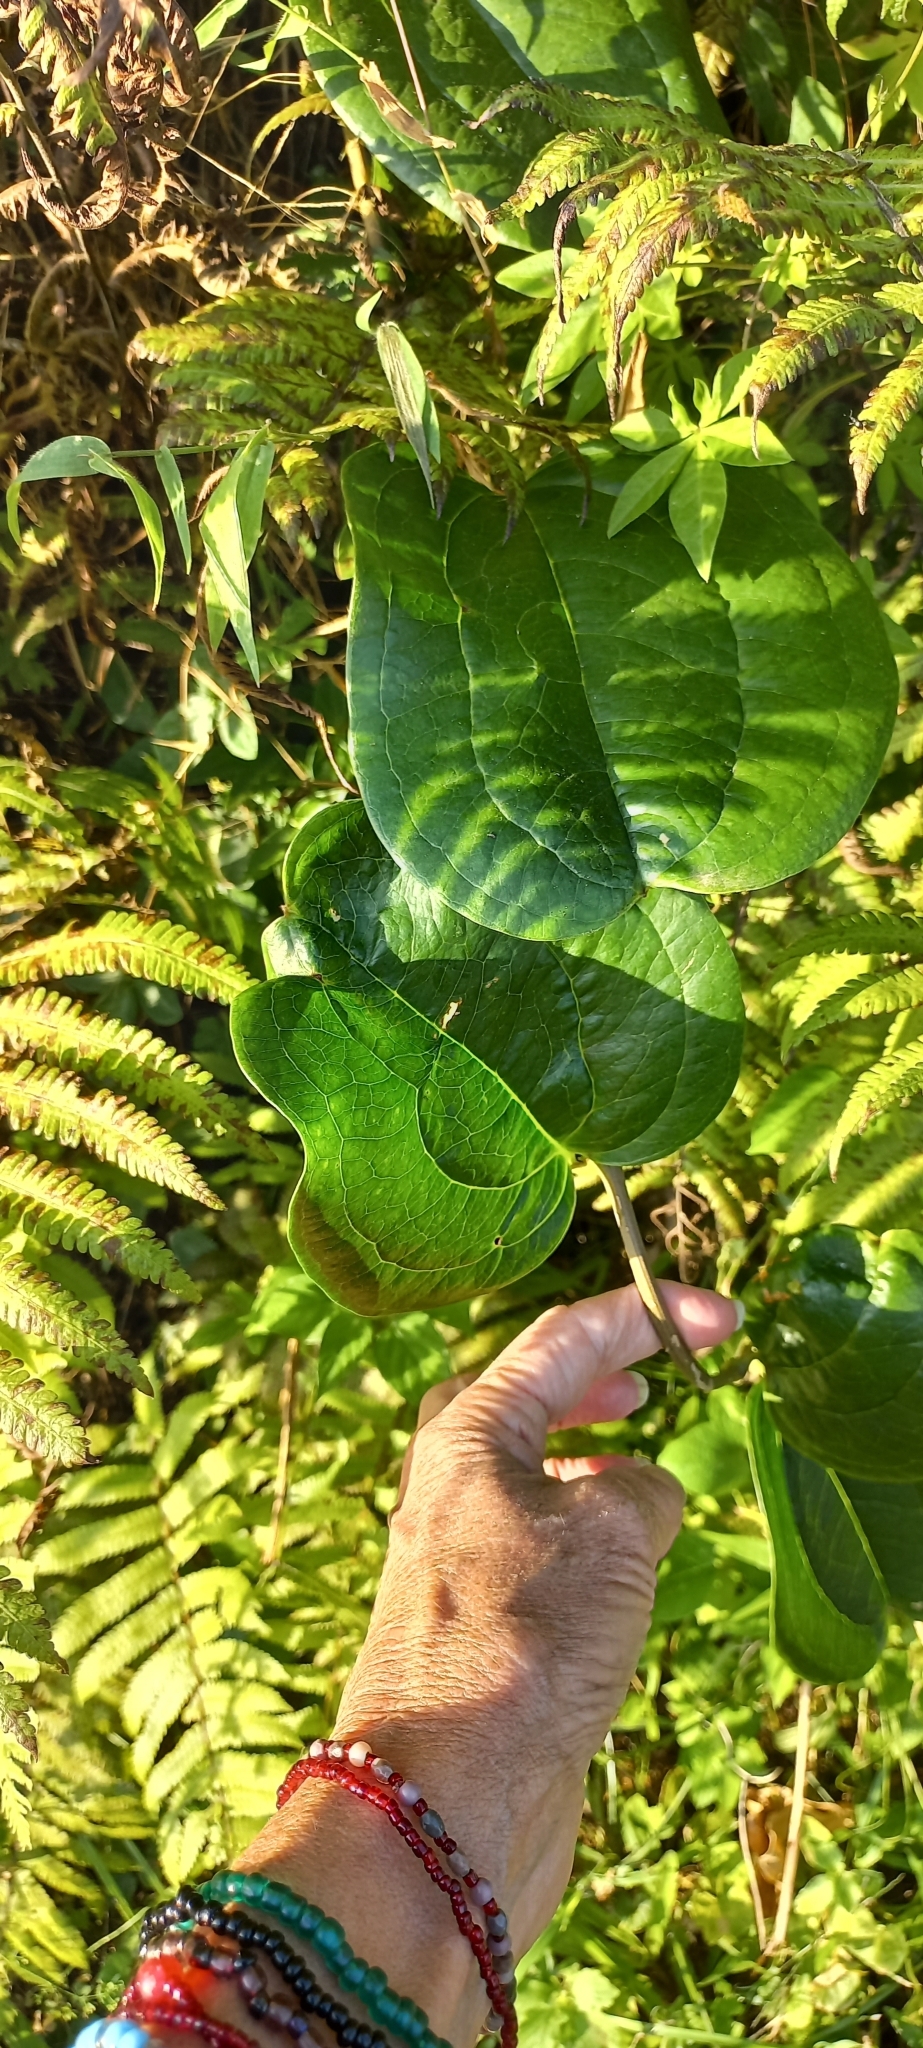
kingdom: Plantae
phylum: Tracheophyta
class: Liliopsida
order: Liliales
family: Smilacaceae
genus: Smilax
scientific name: Smilax anceps
